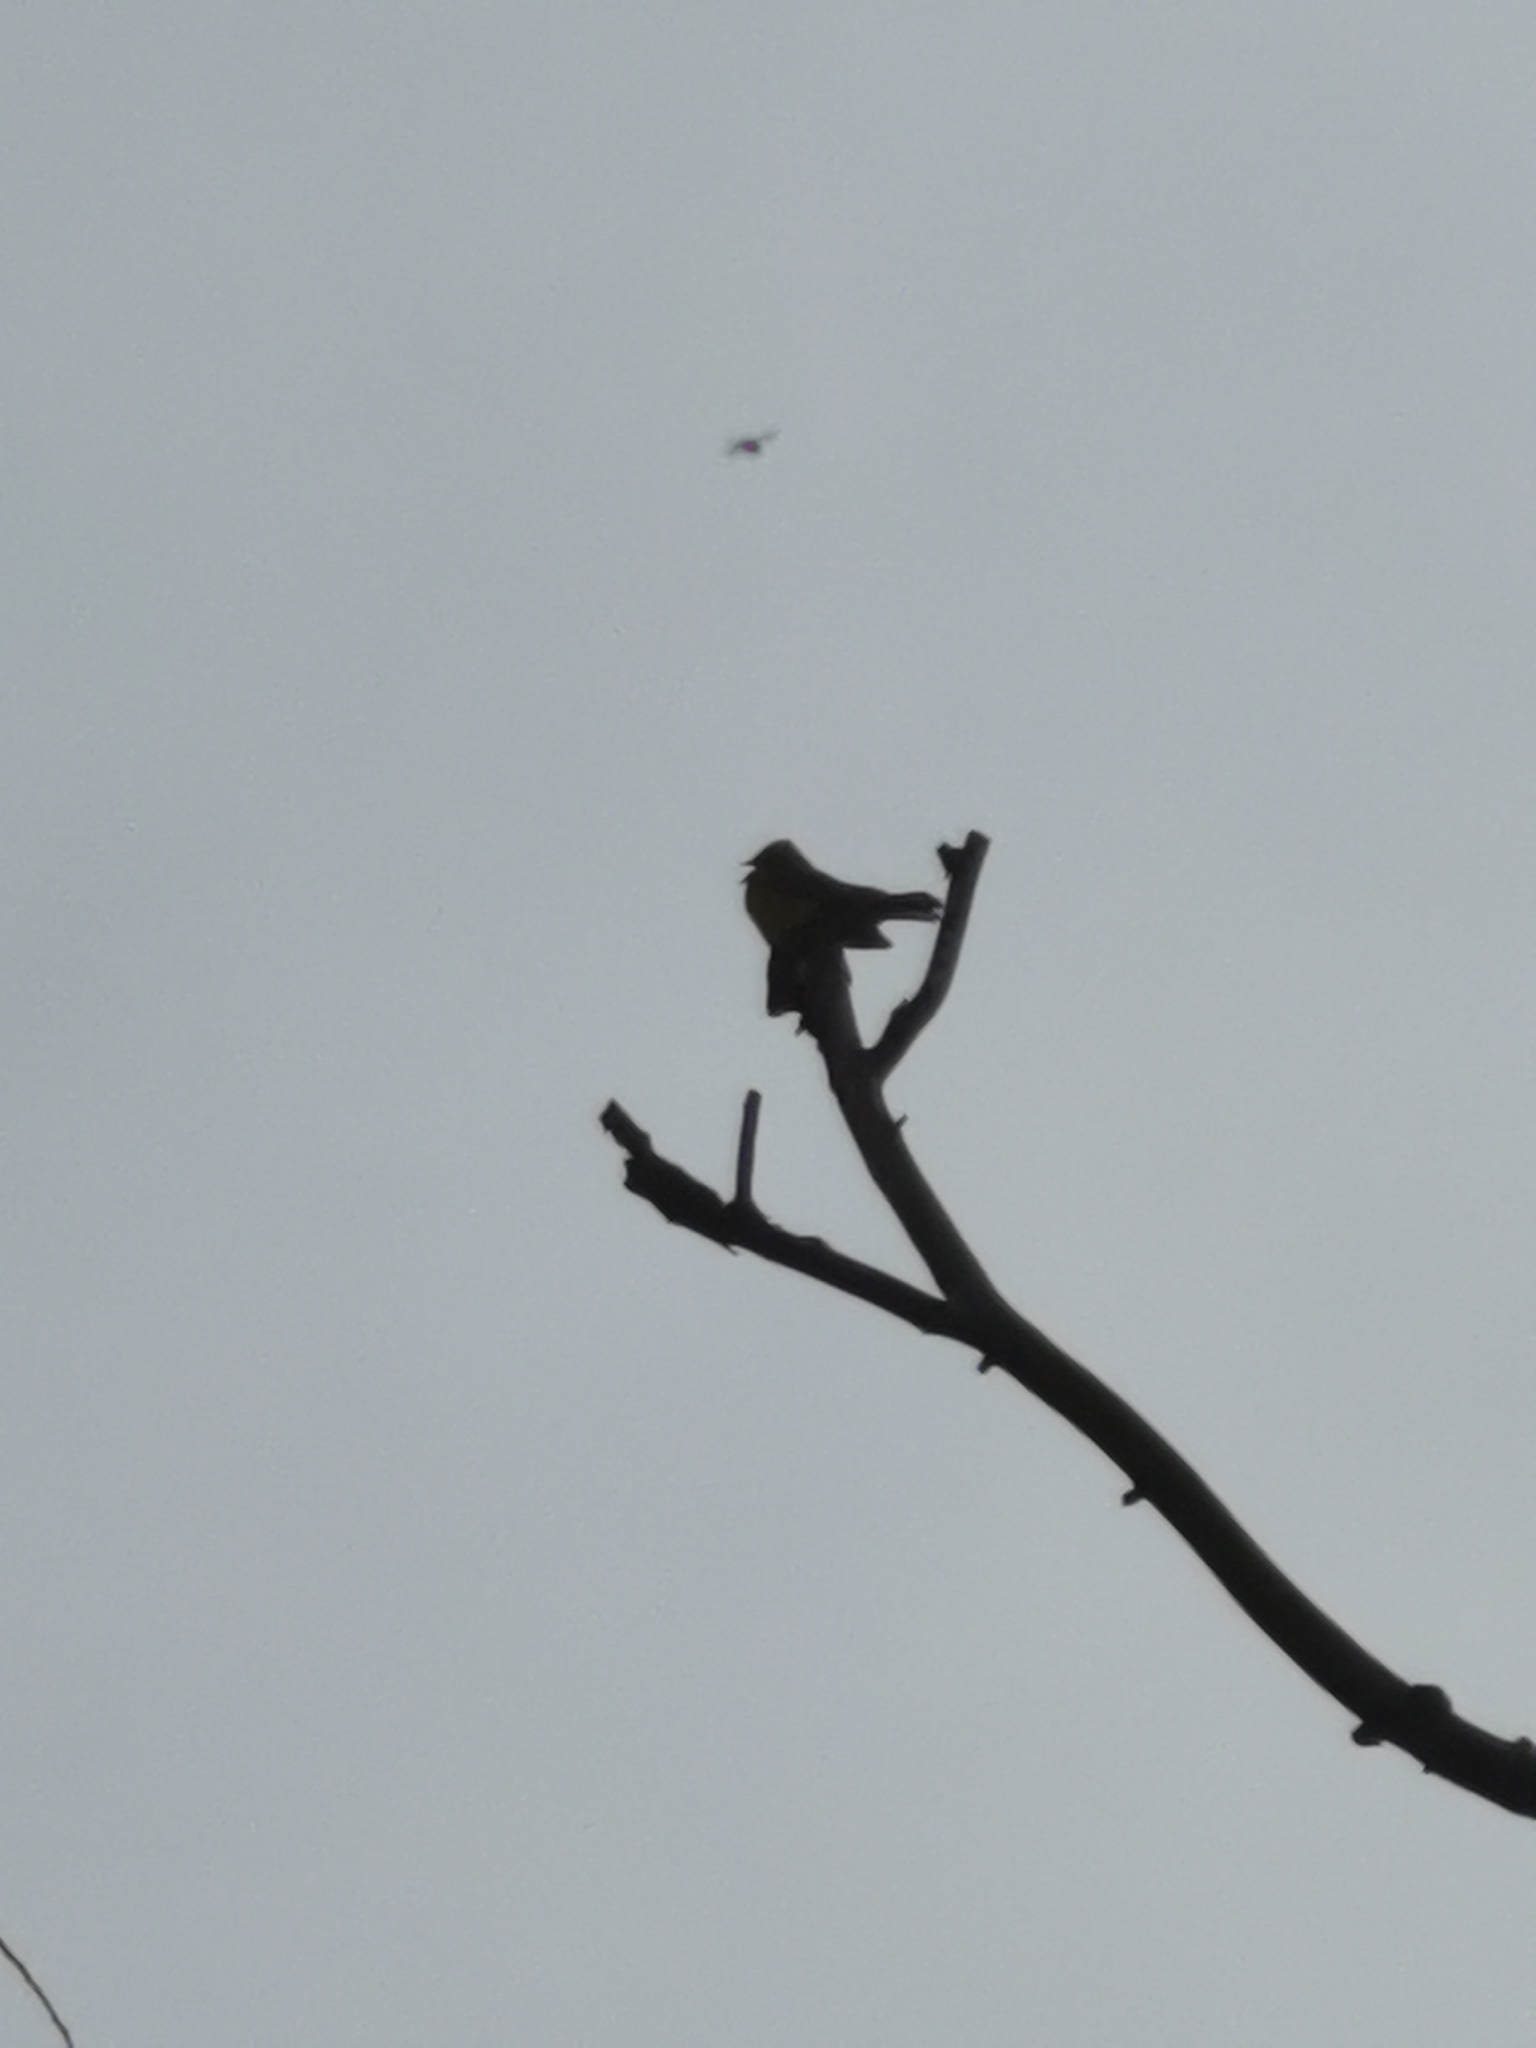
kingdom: Animalia
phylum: Chordata
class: Aves
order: Passeriformes
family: Emberizidae
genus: Emberiza
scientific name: Emberiza citrinella
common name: Yellowhammer
